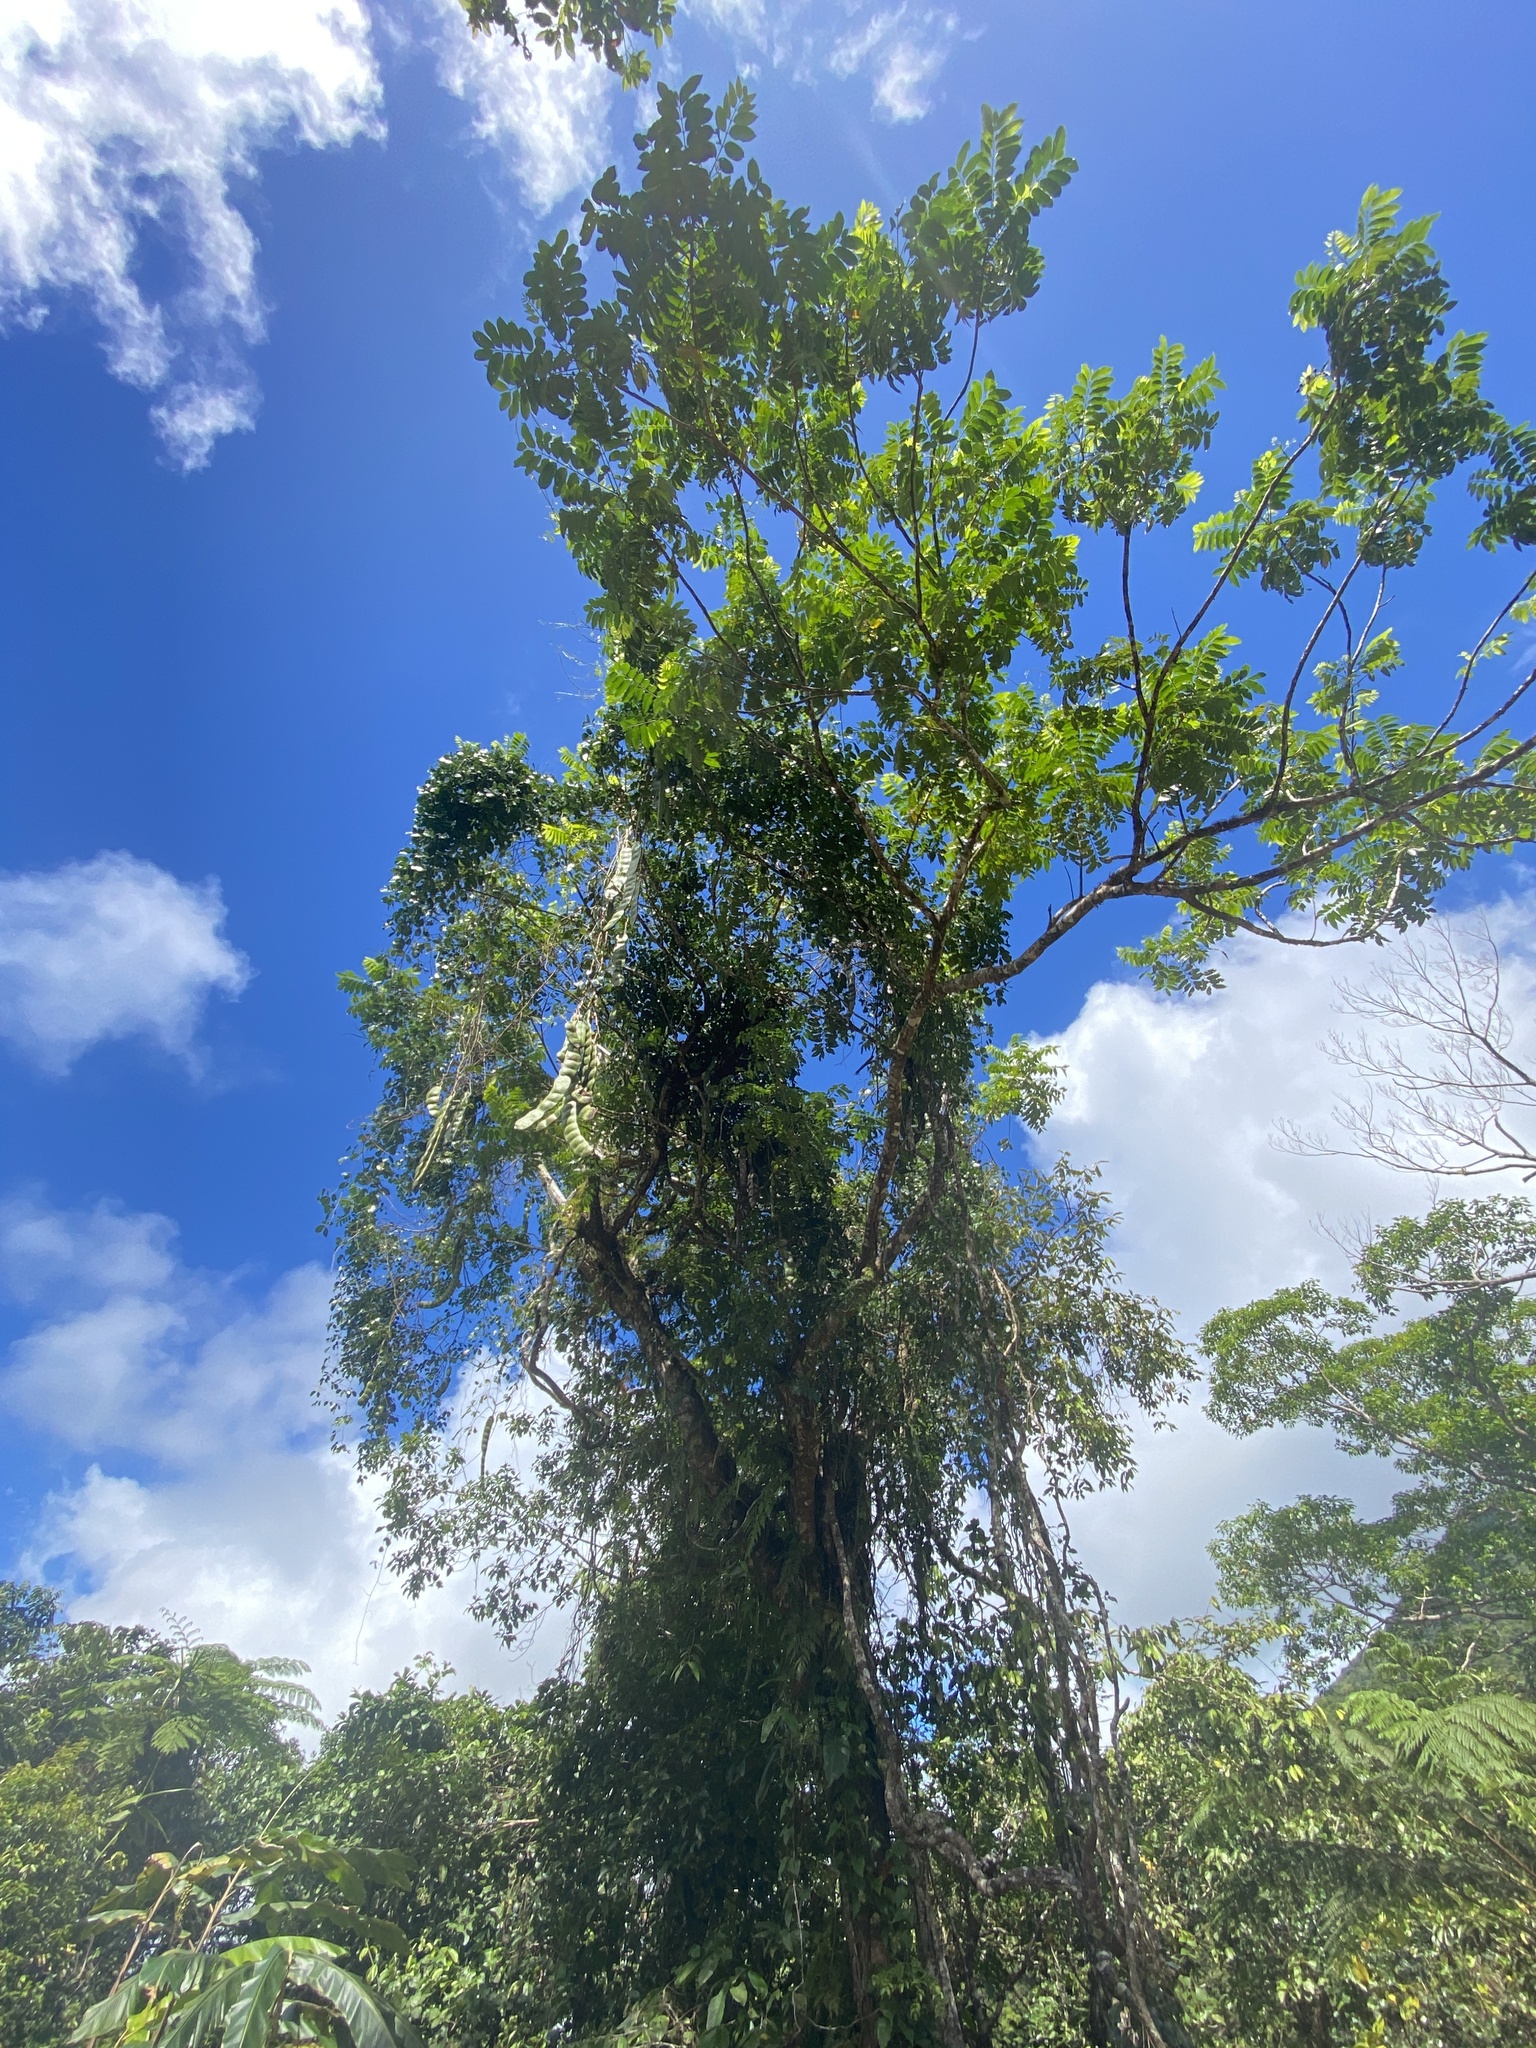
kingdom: Plantae
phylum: Tracheophyta
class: Magnoliopsida
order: Fabales
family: Fabaceae
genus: Entada
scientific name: Entada phaseoloides
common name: Matchbox-bean
